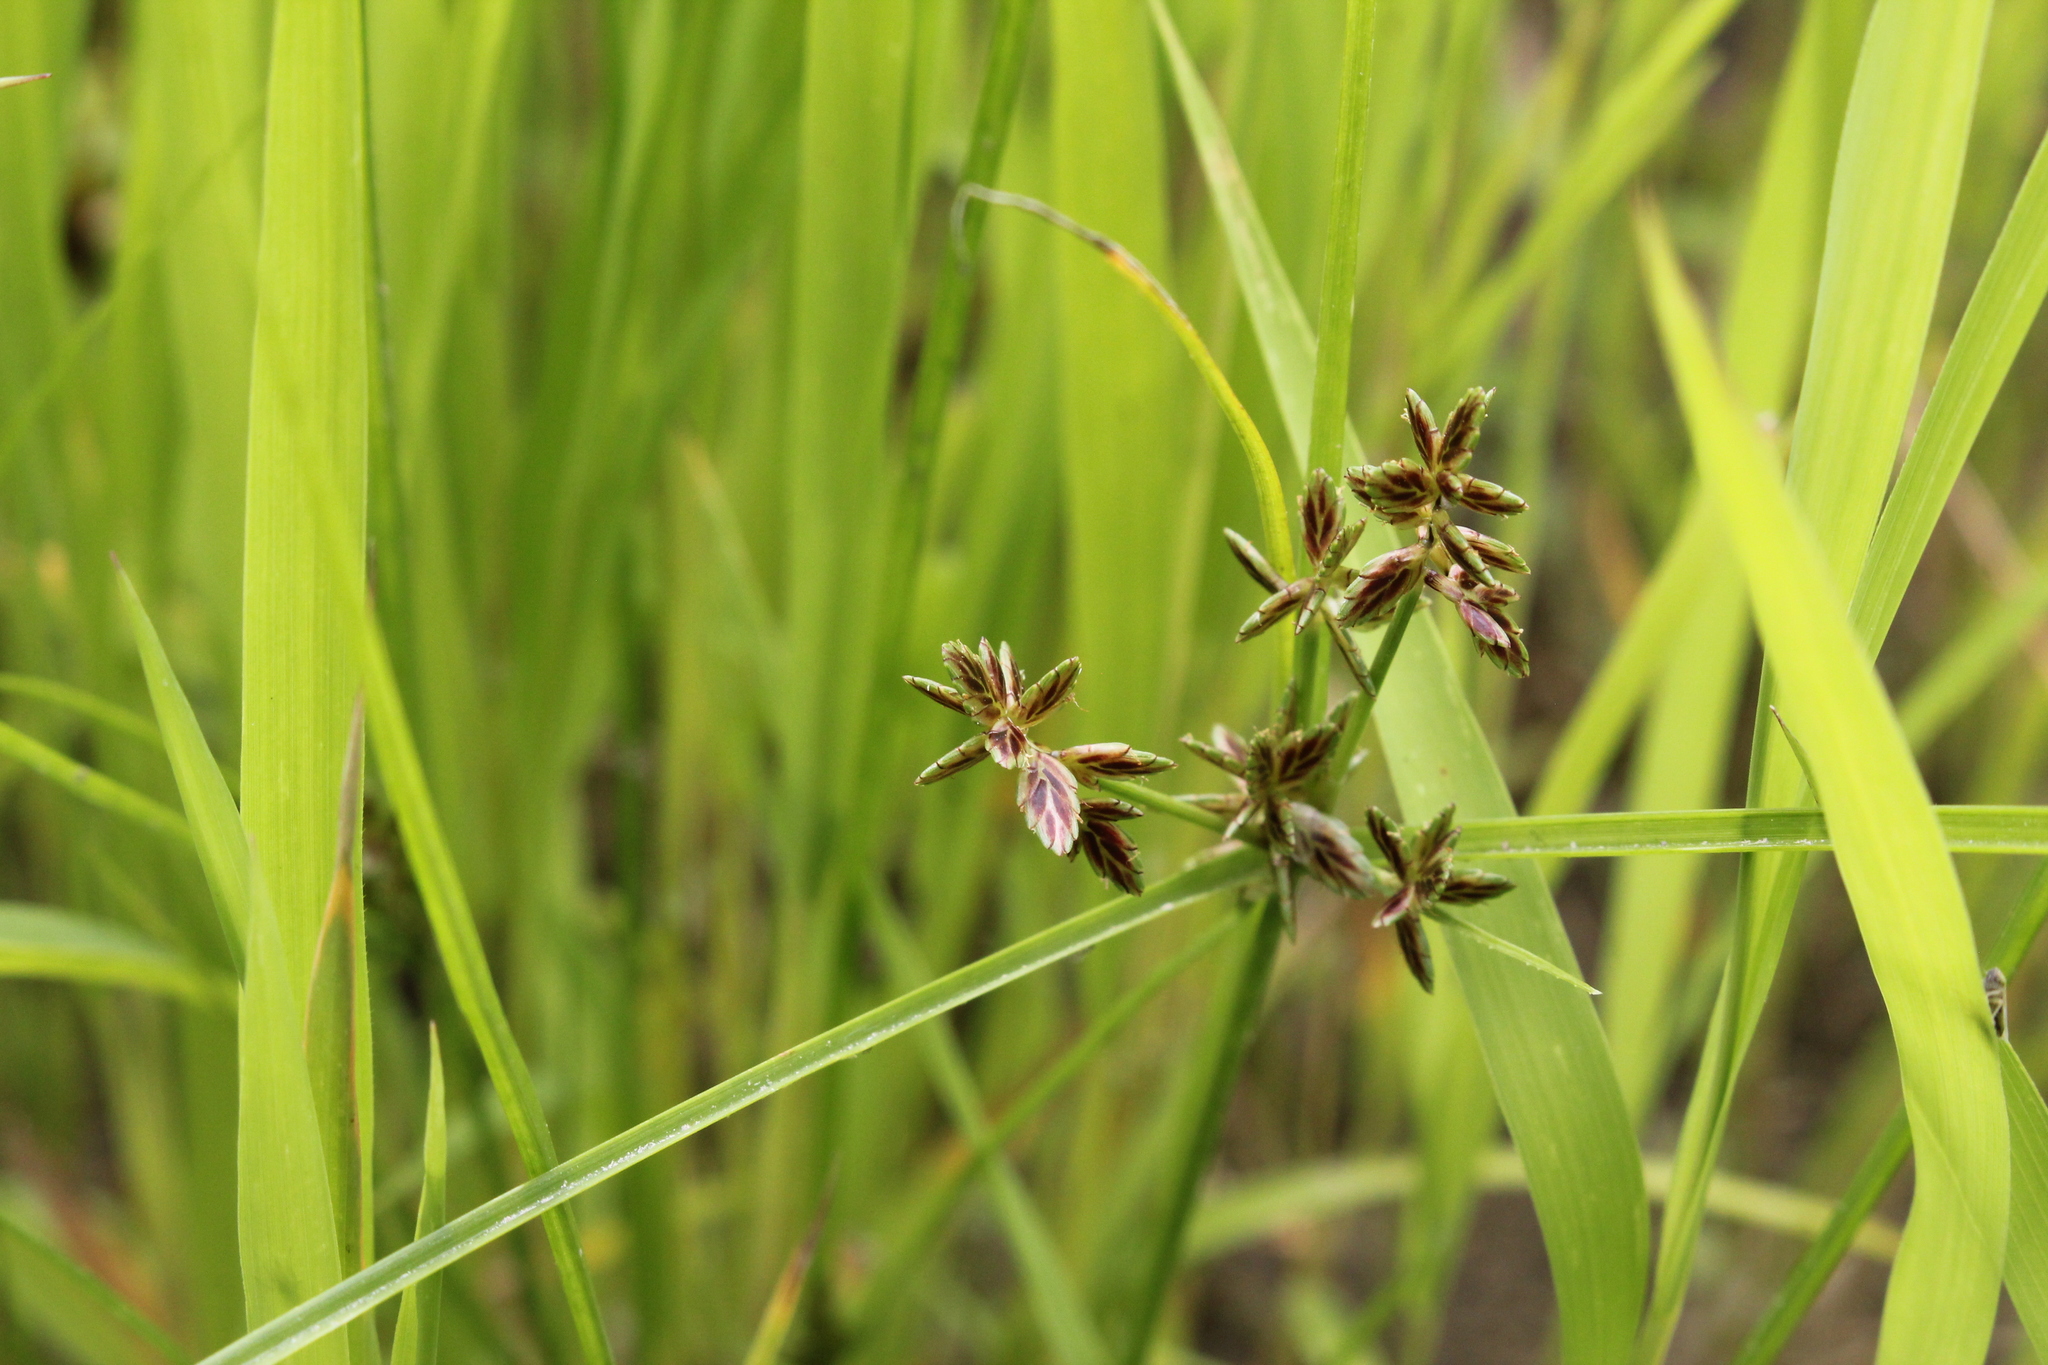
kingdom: Plantae
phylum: Tracheophyta
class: Liliopsida
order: Poales
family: Cyperaceae
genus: Cyperus
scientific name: Cyperus bipartitus
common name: Brook flatsedge
